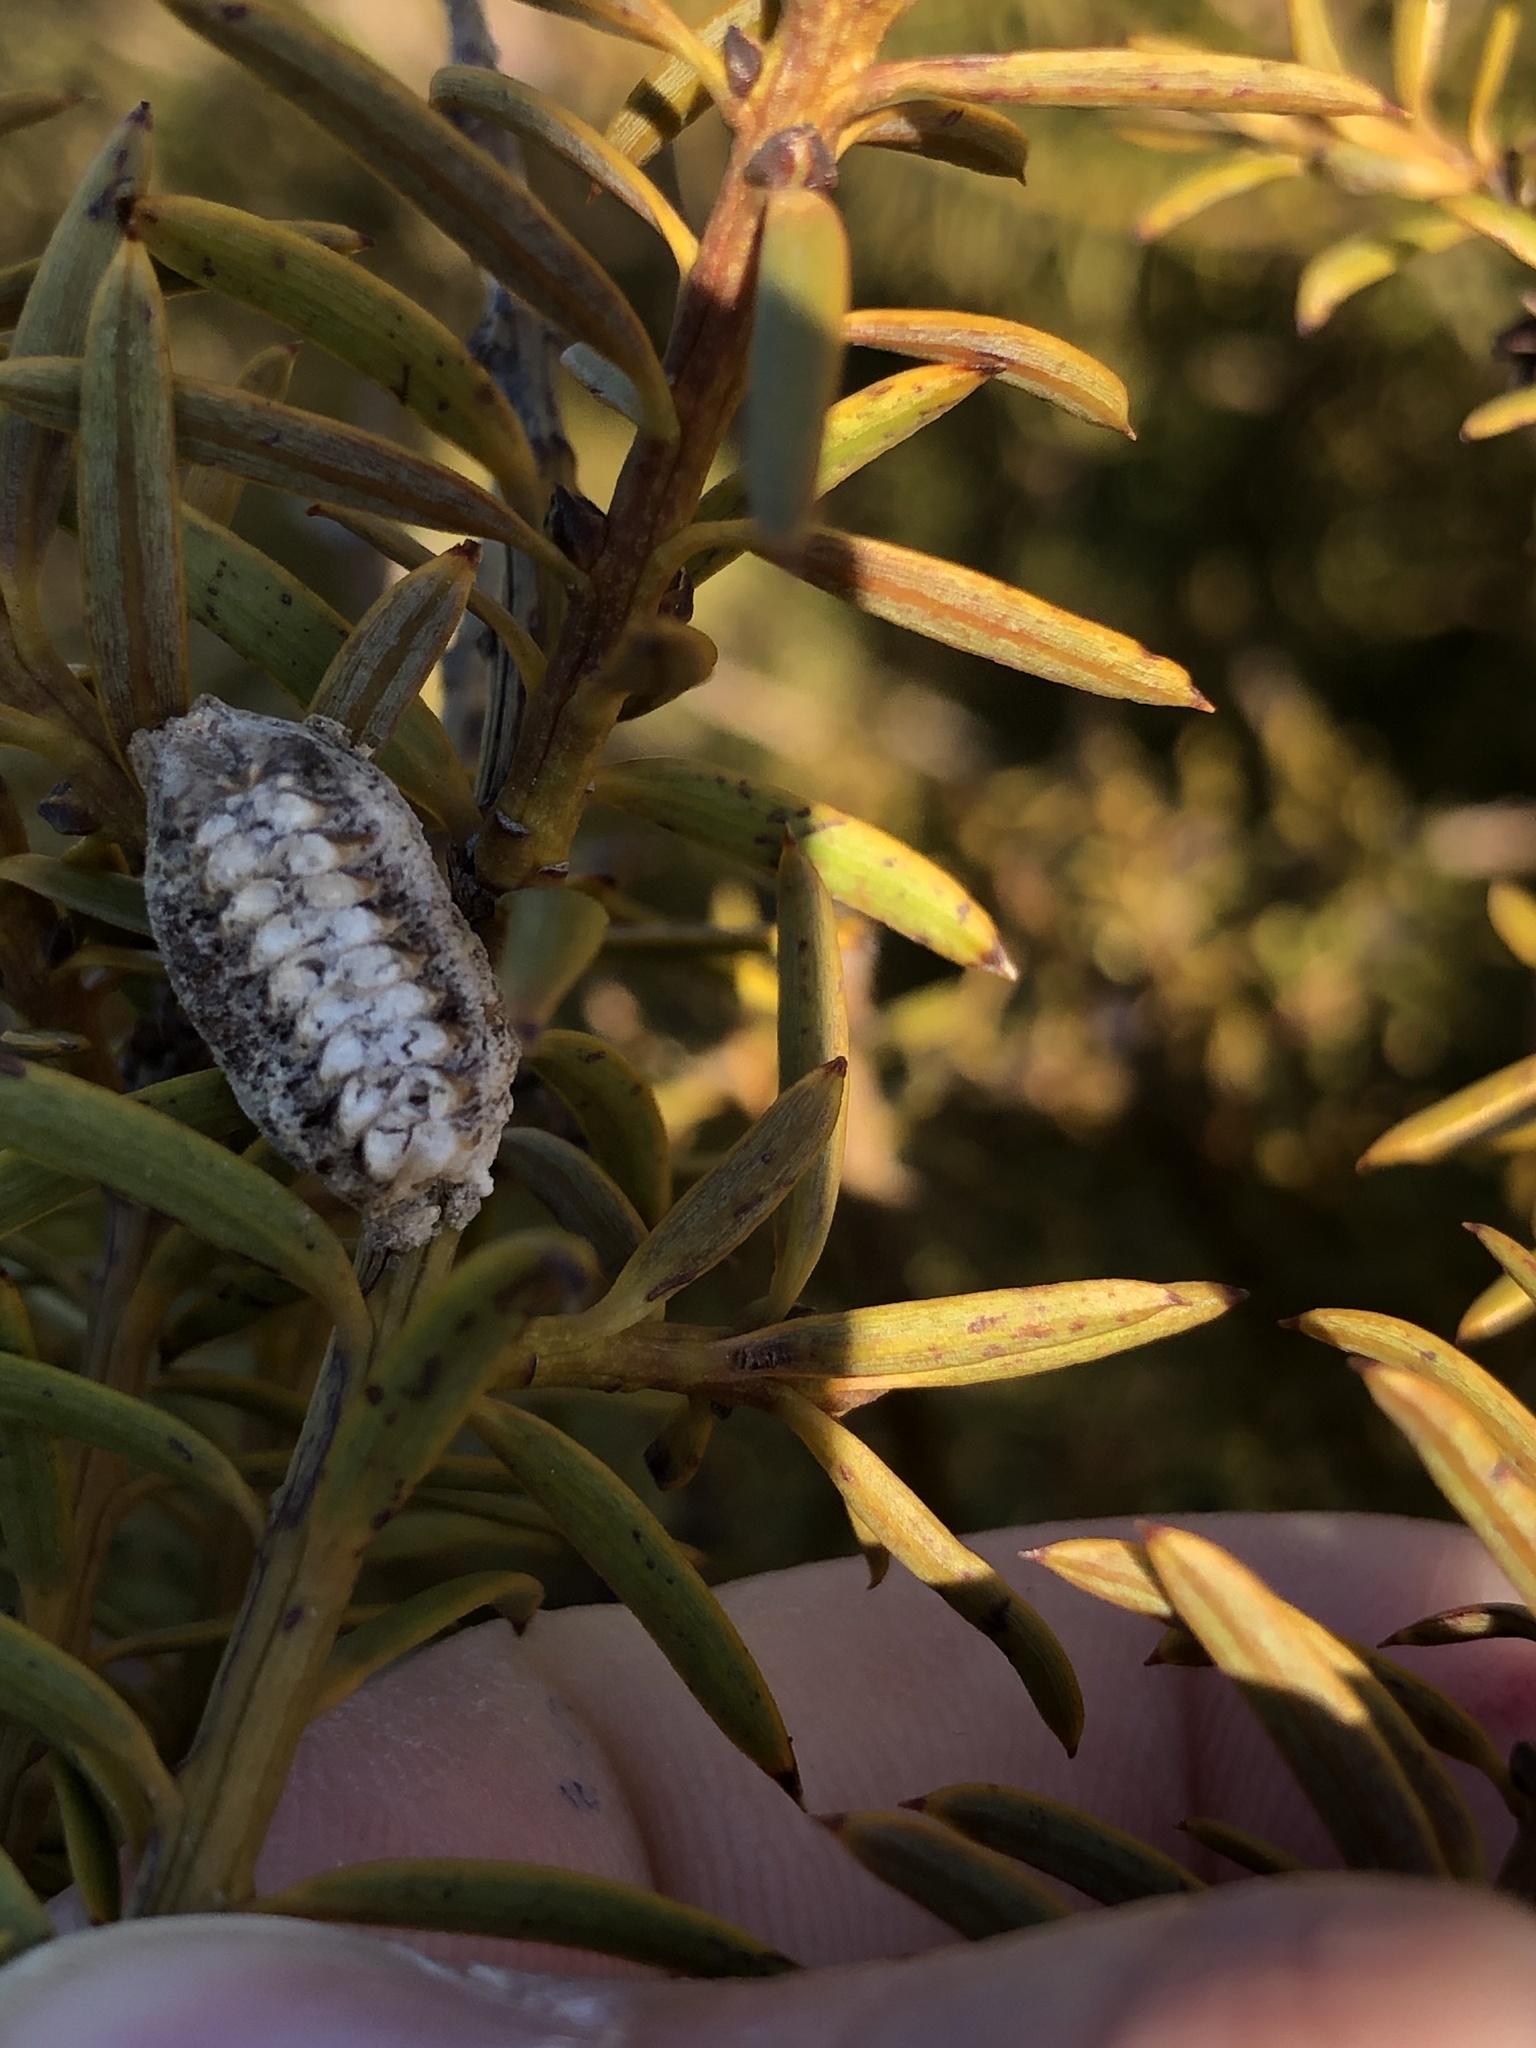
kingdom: Animalia
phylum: Arthropoda
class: Insecta
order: Mantodea
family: Mantidae
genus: Orthodera
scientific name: Orthodera novaezealandiae
